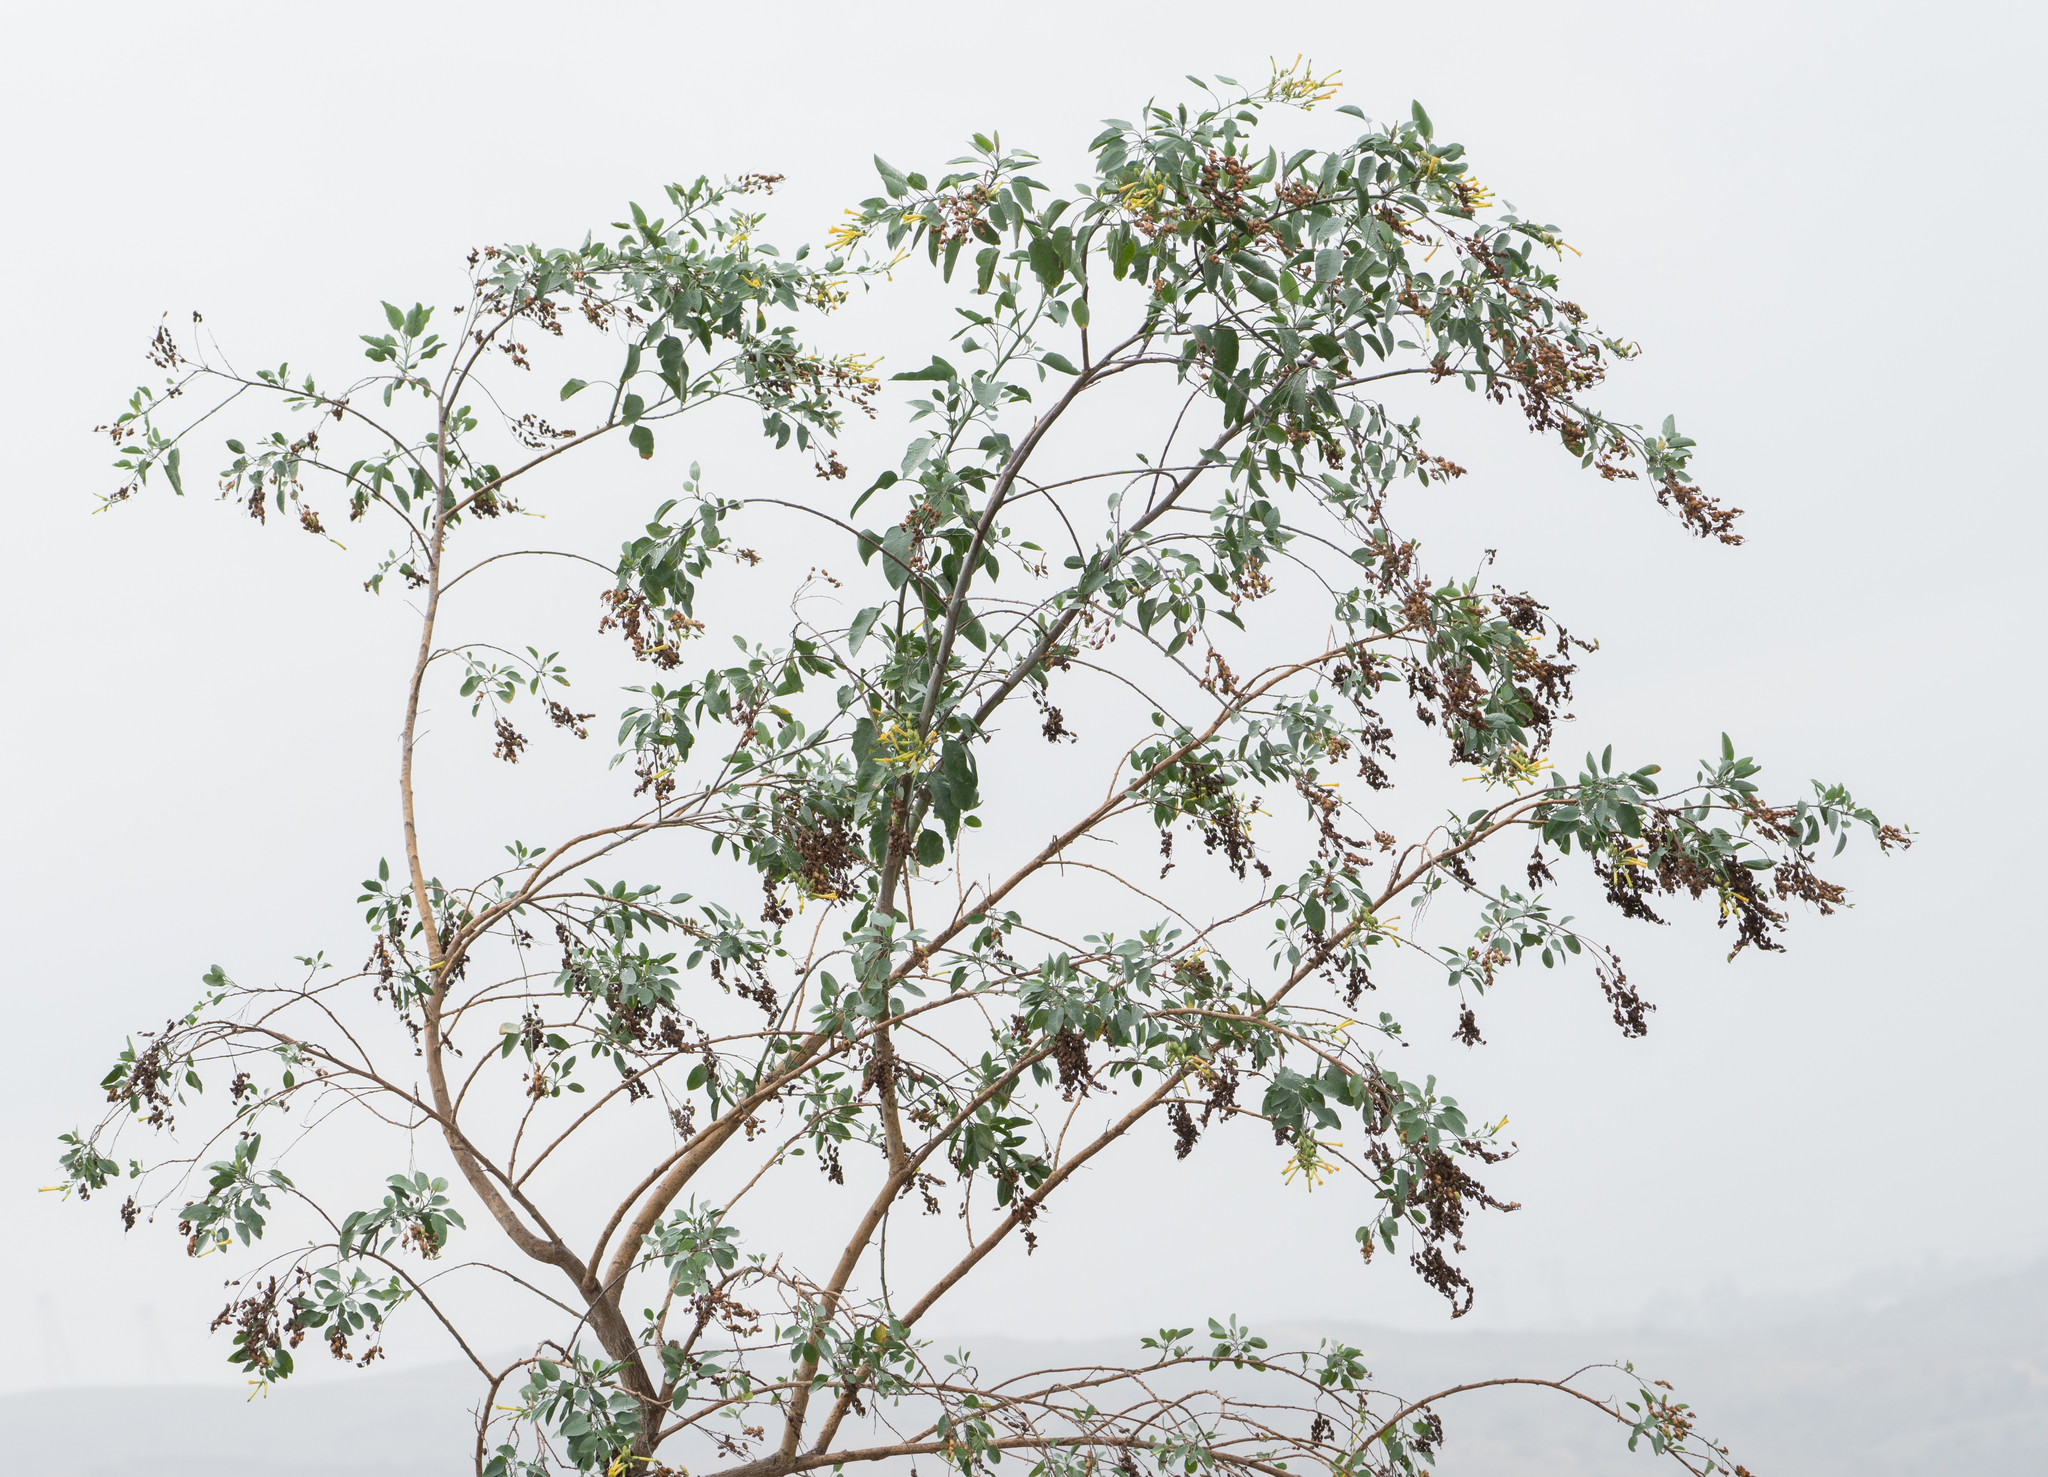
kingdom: Plantae
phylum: Tracheophyta
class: Magnoliopsida
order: Solanales
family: Solanaceae
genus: Nicotiana
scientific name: Nicotiana glauca
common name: Tree tobacco
